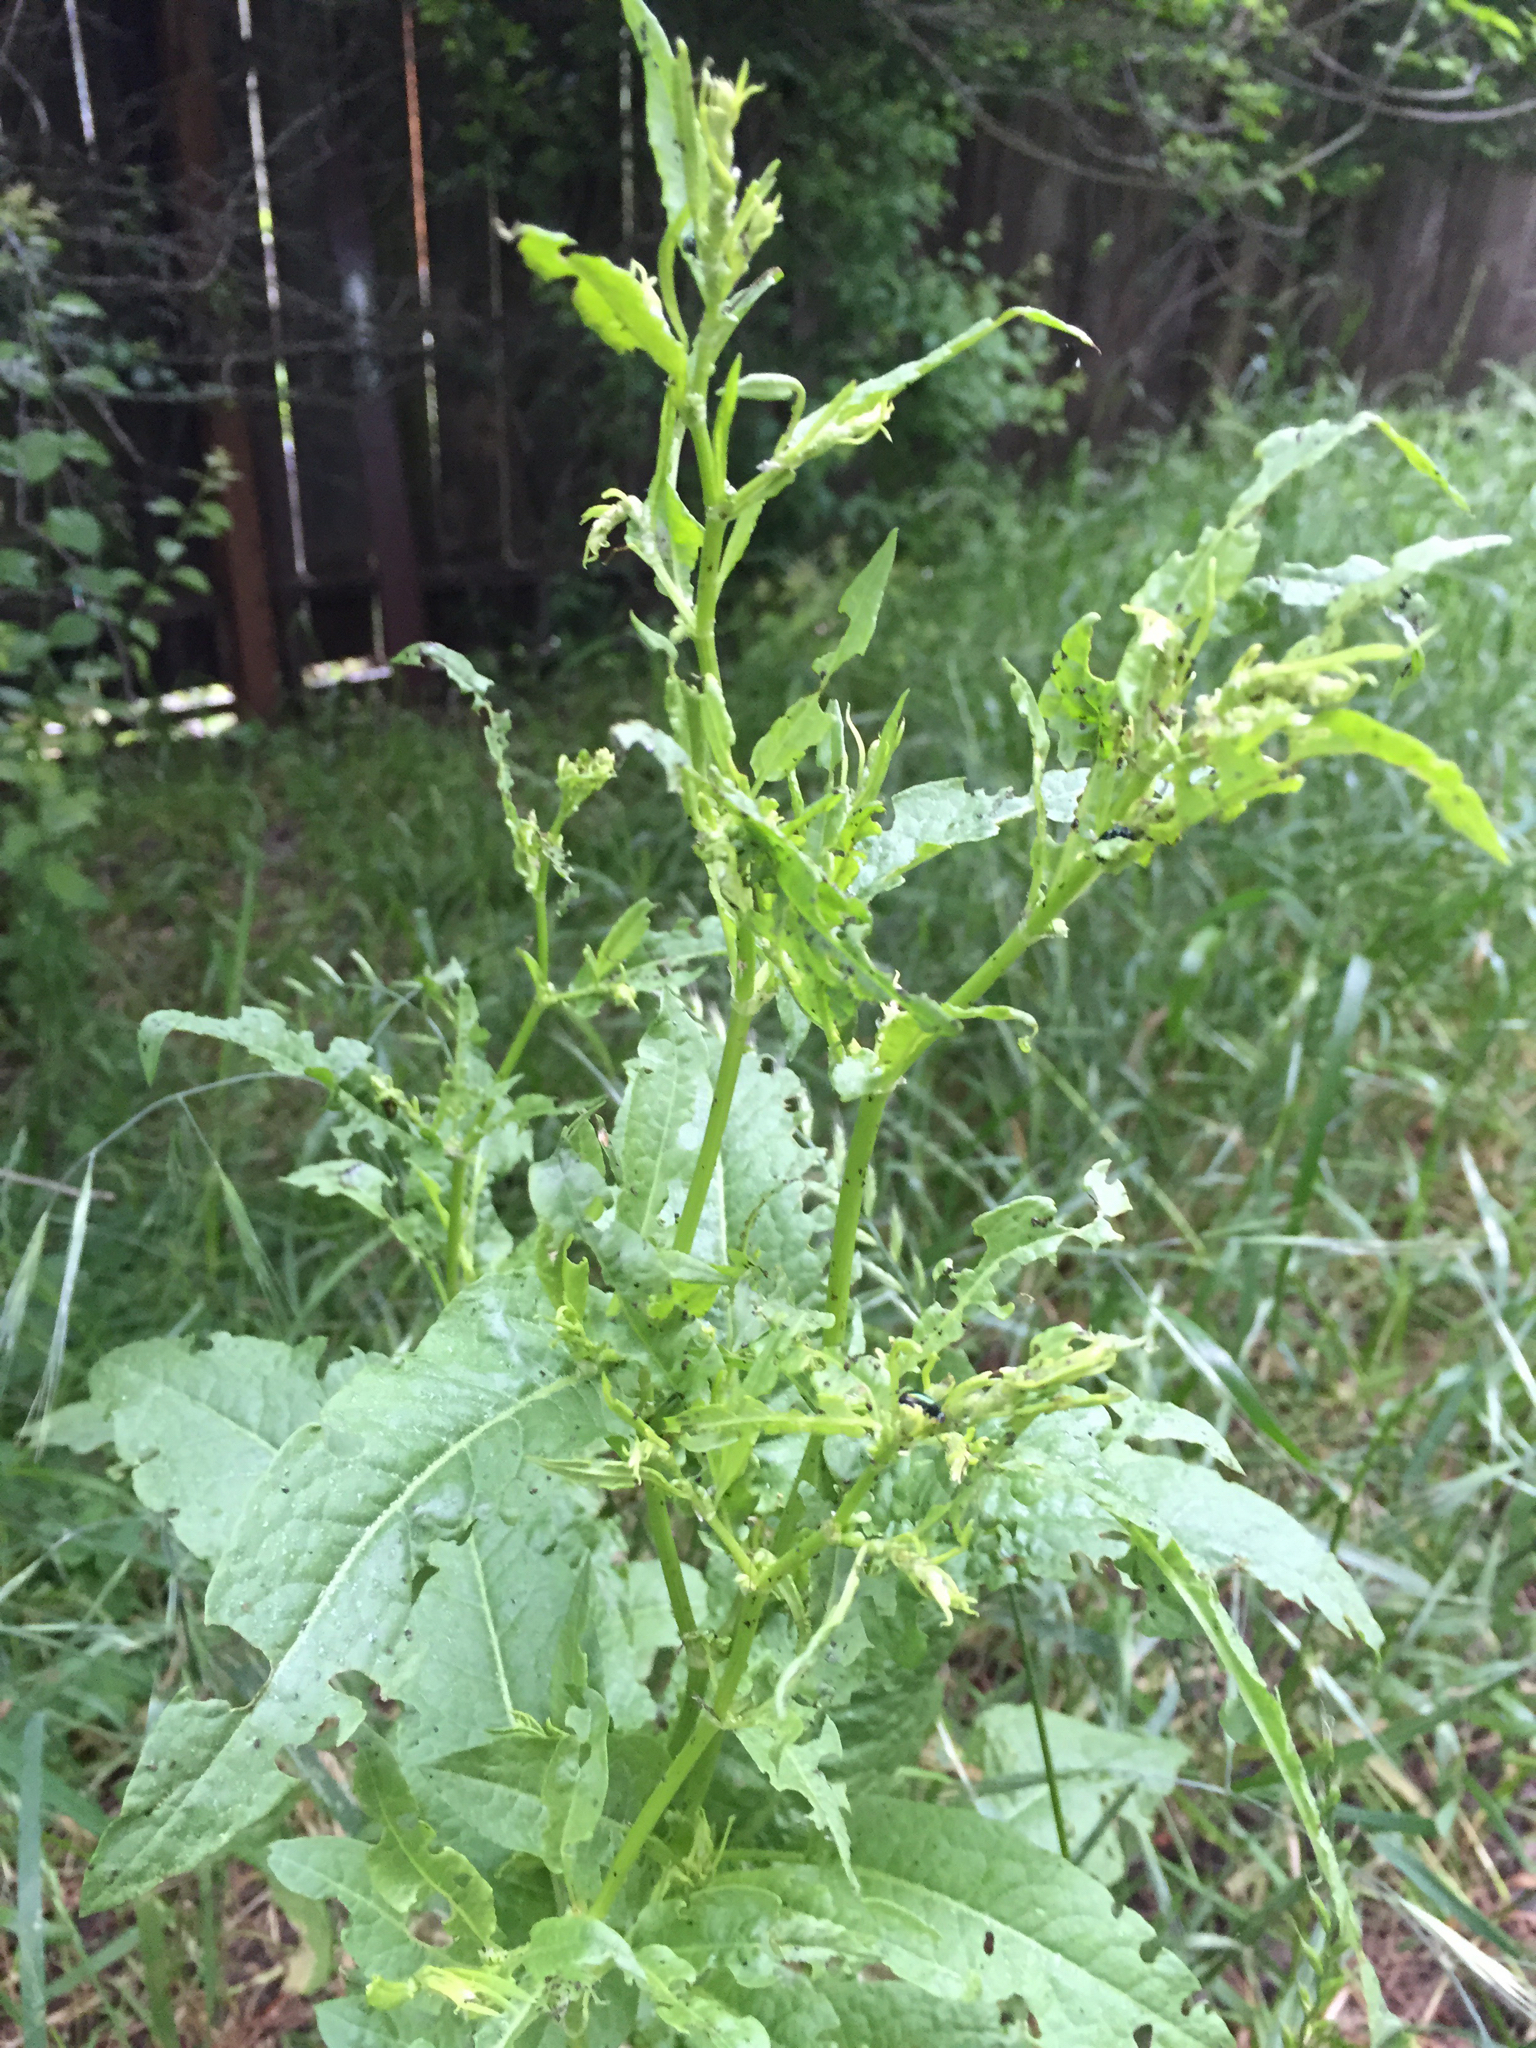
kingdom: Animalia
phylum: Arthropoda
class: Insecta
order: Coleoptera
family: Chrysomelidae
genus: Gastrophysa
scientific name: Gastrophysa cyanea
